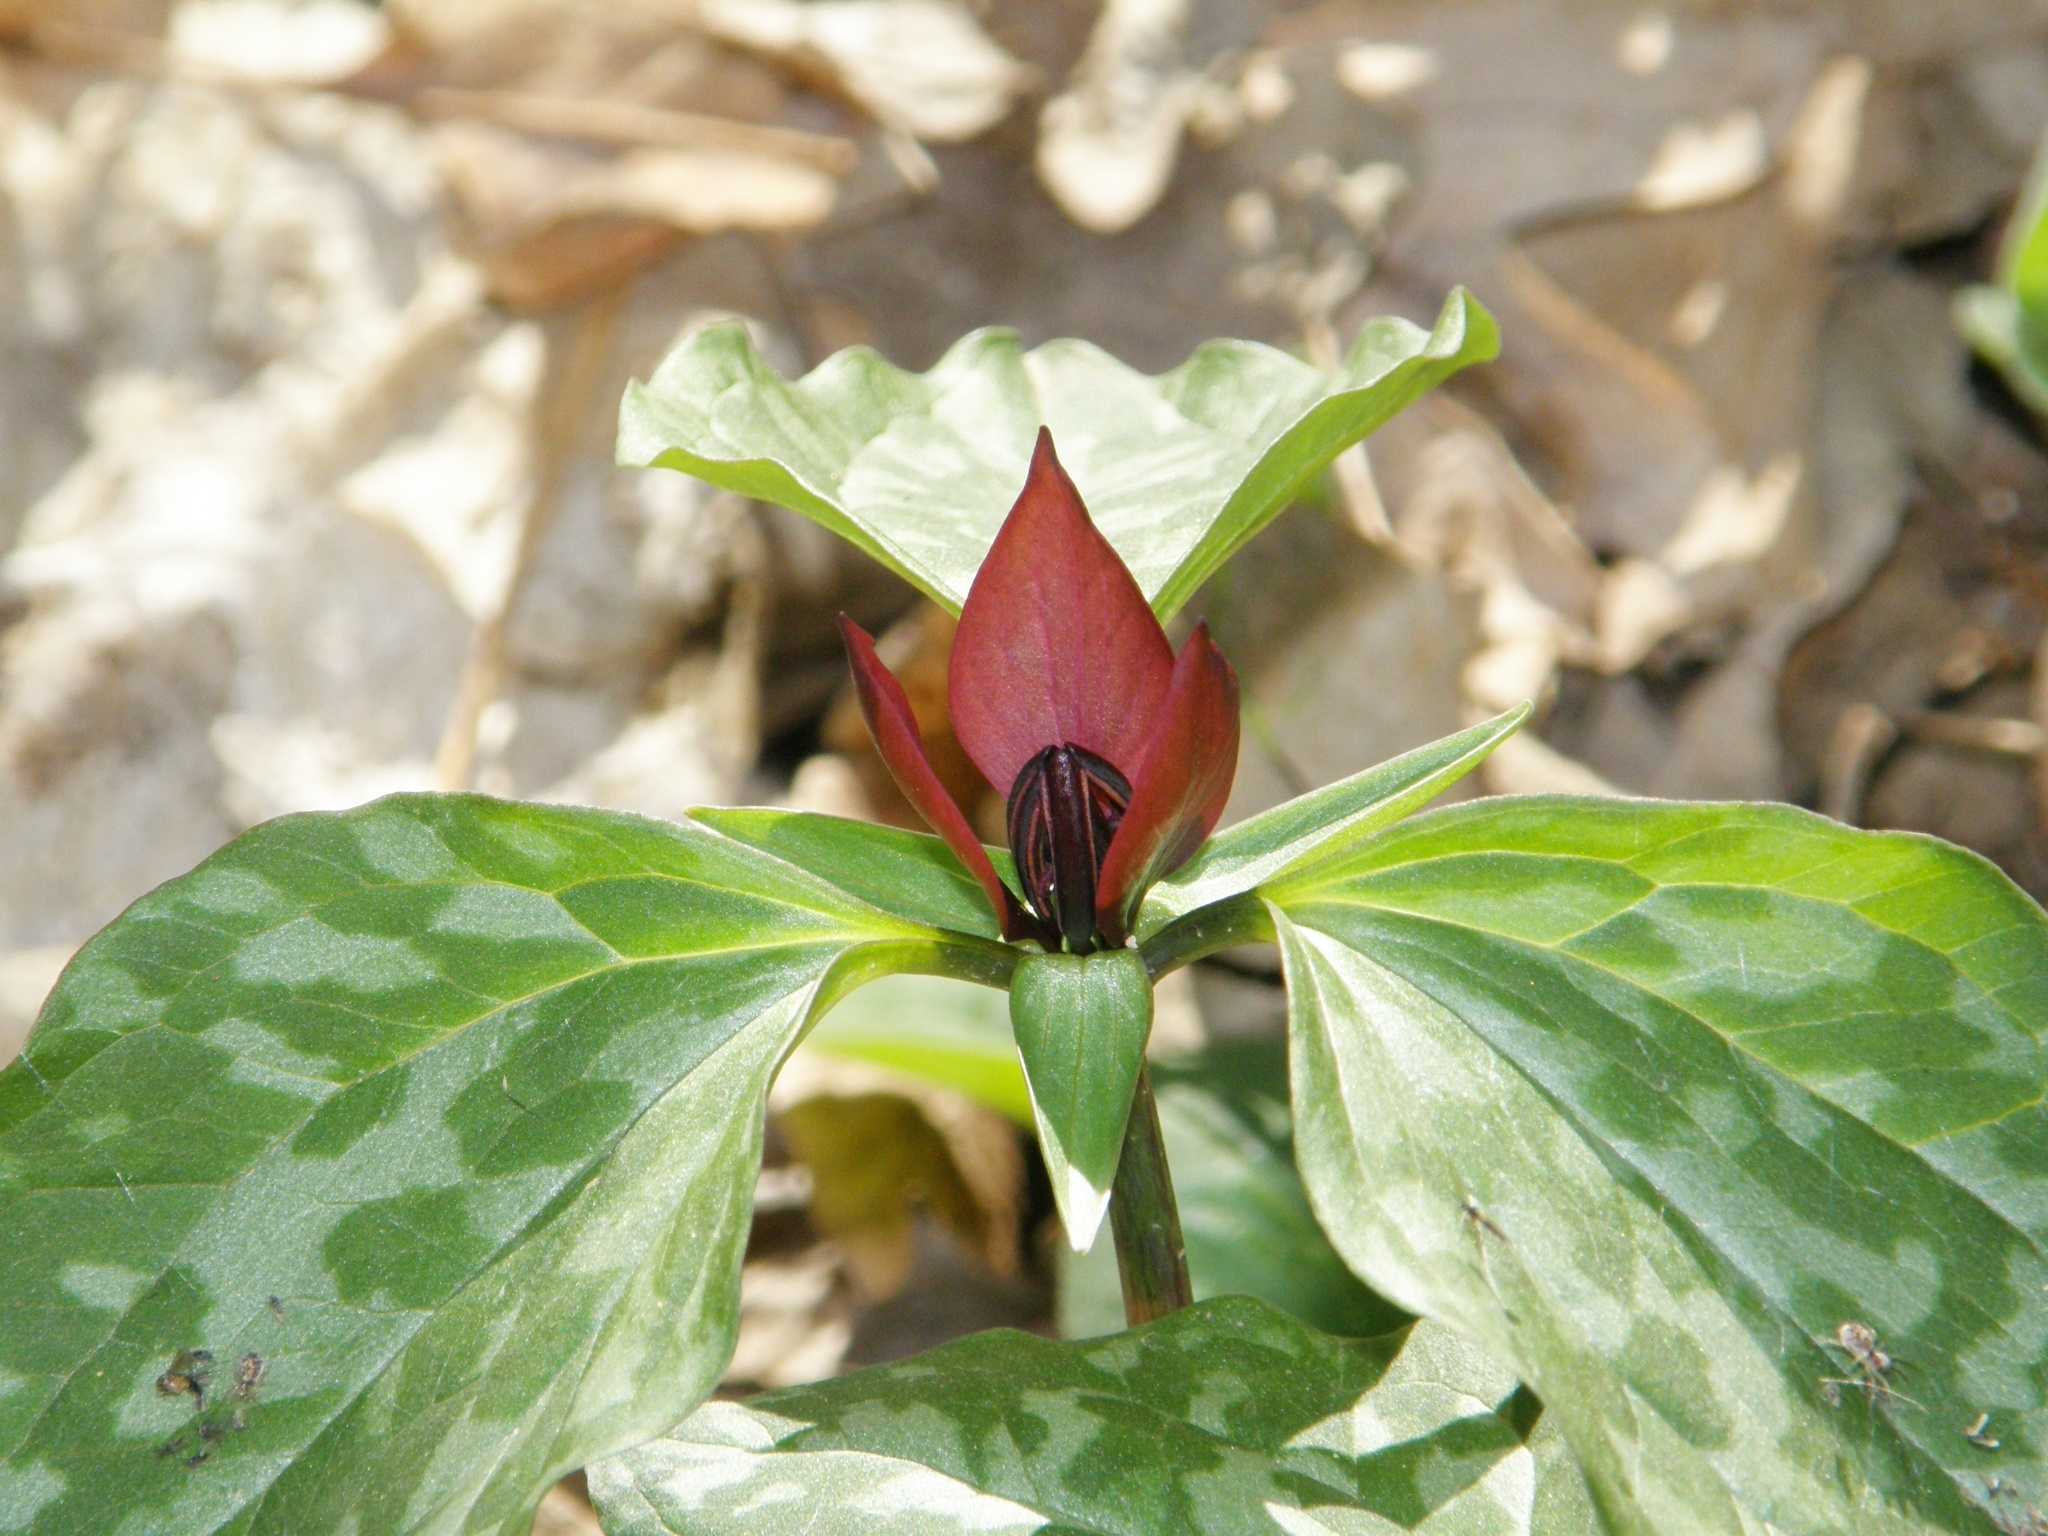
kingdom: Plantae
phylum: Tracheophyta
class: Liliopsida
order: Liliales
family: Melanthiaceae
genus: Trillium
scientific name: Trillium recurvatum
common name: Bloody butcher
